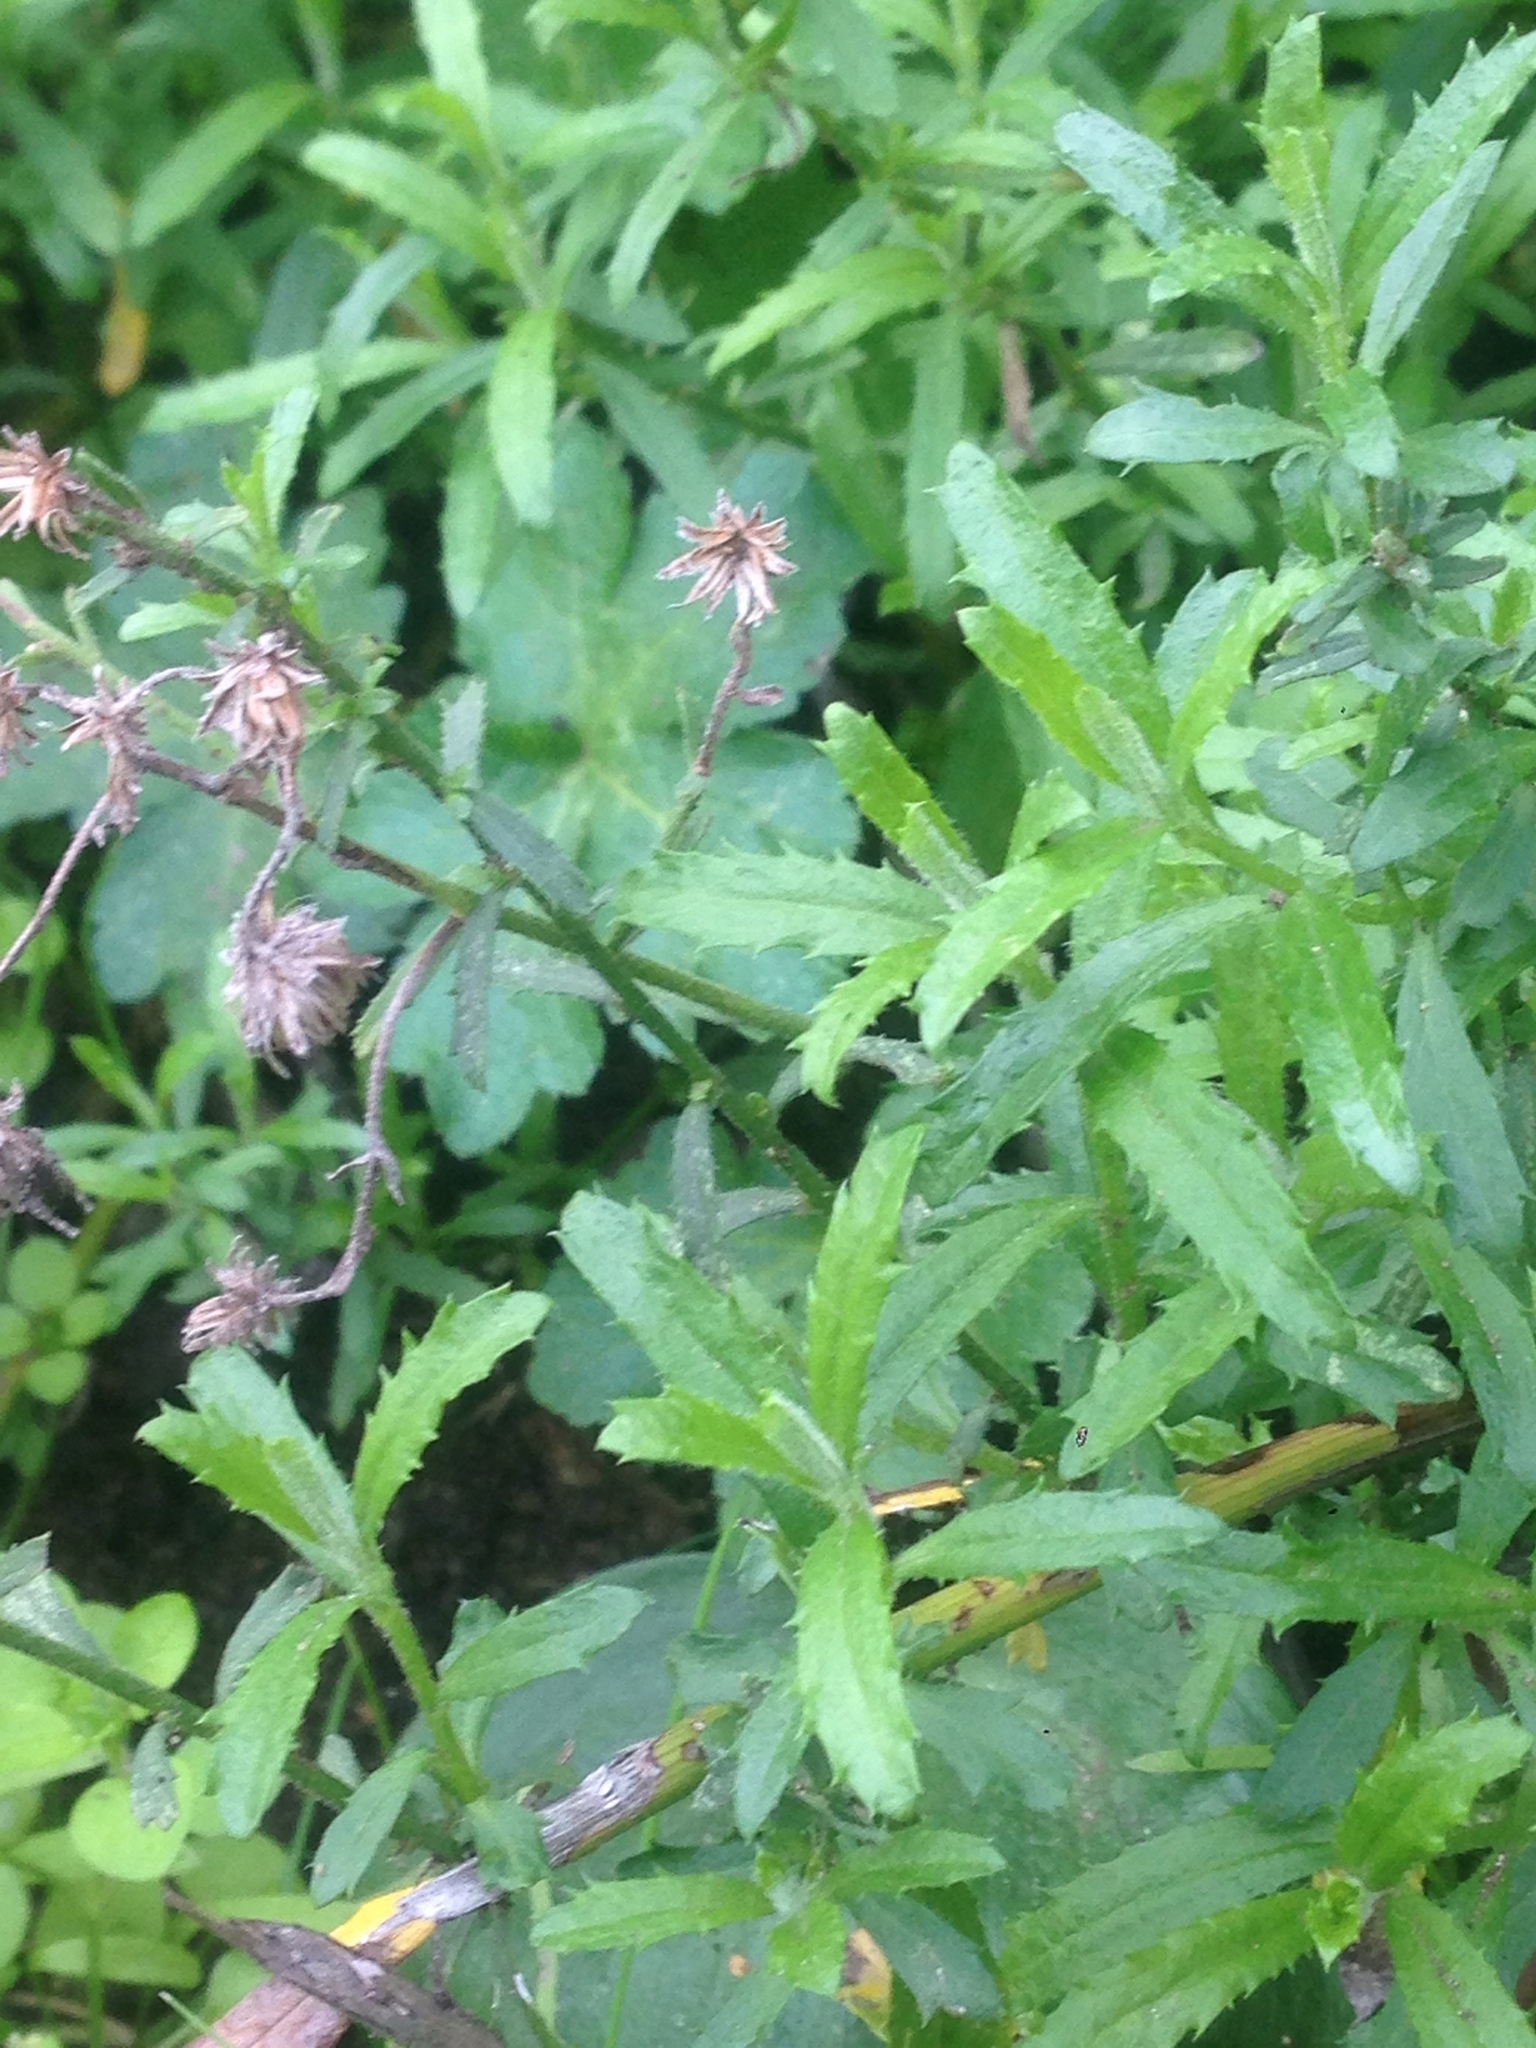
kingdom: Plantae
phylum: Tracheophyta
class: Magnoliopsida
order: Asterales
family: Asteraceae
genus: Baccharis
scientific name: Baccharis plummerae
